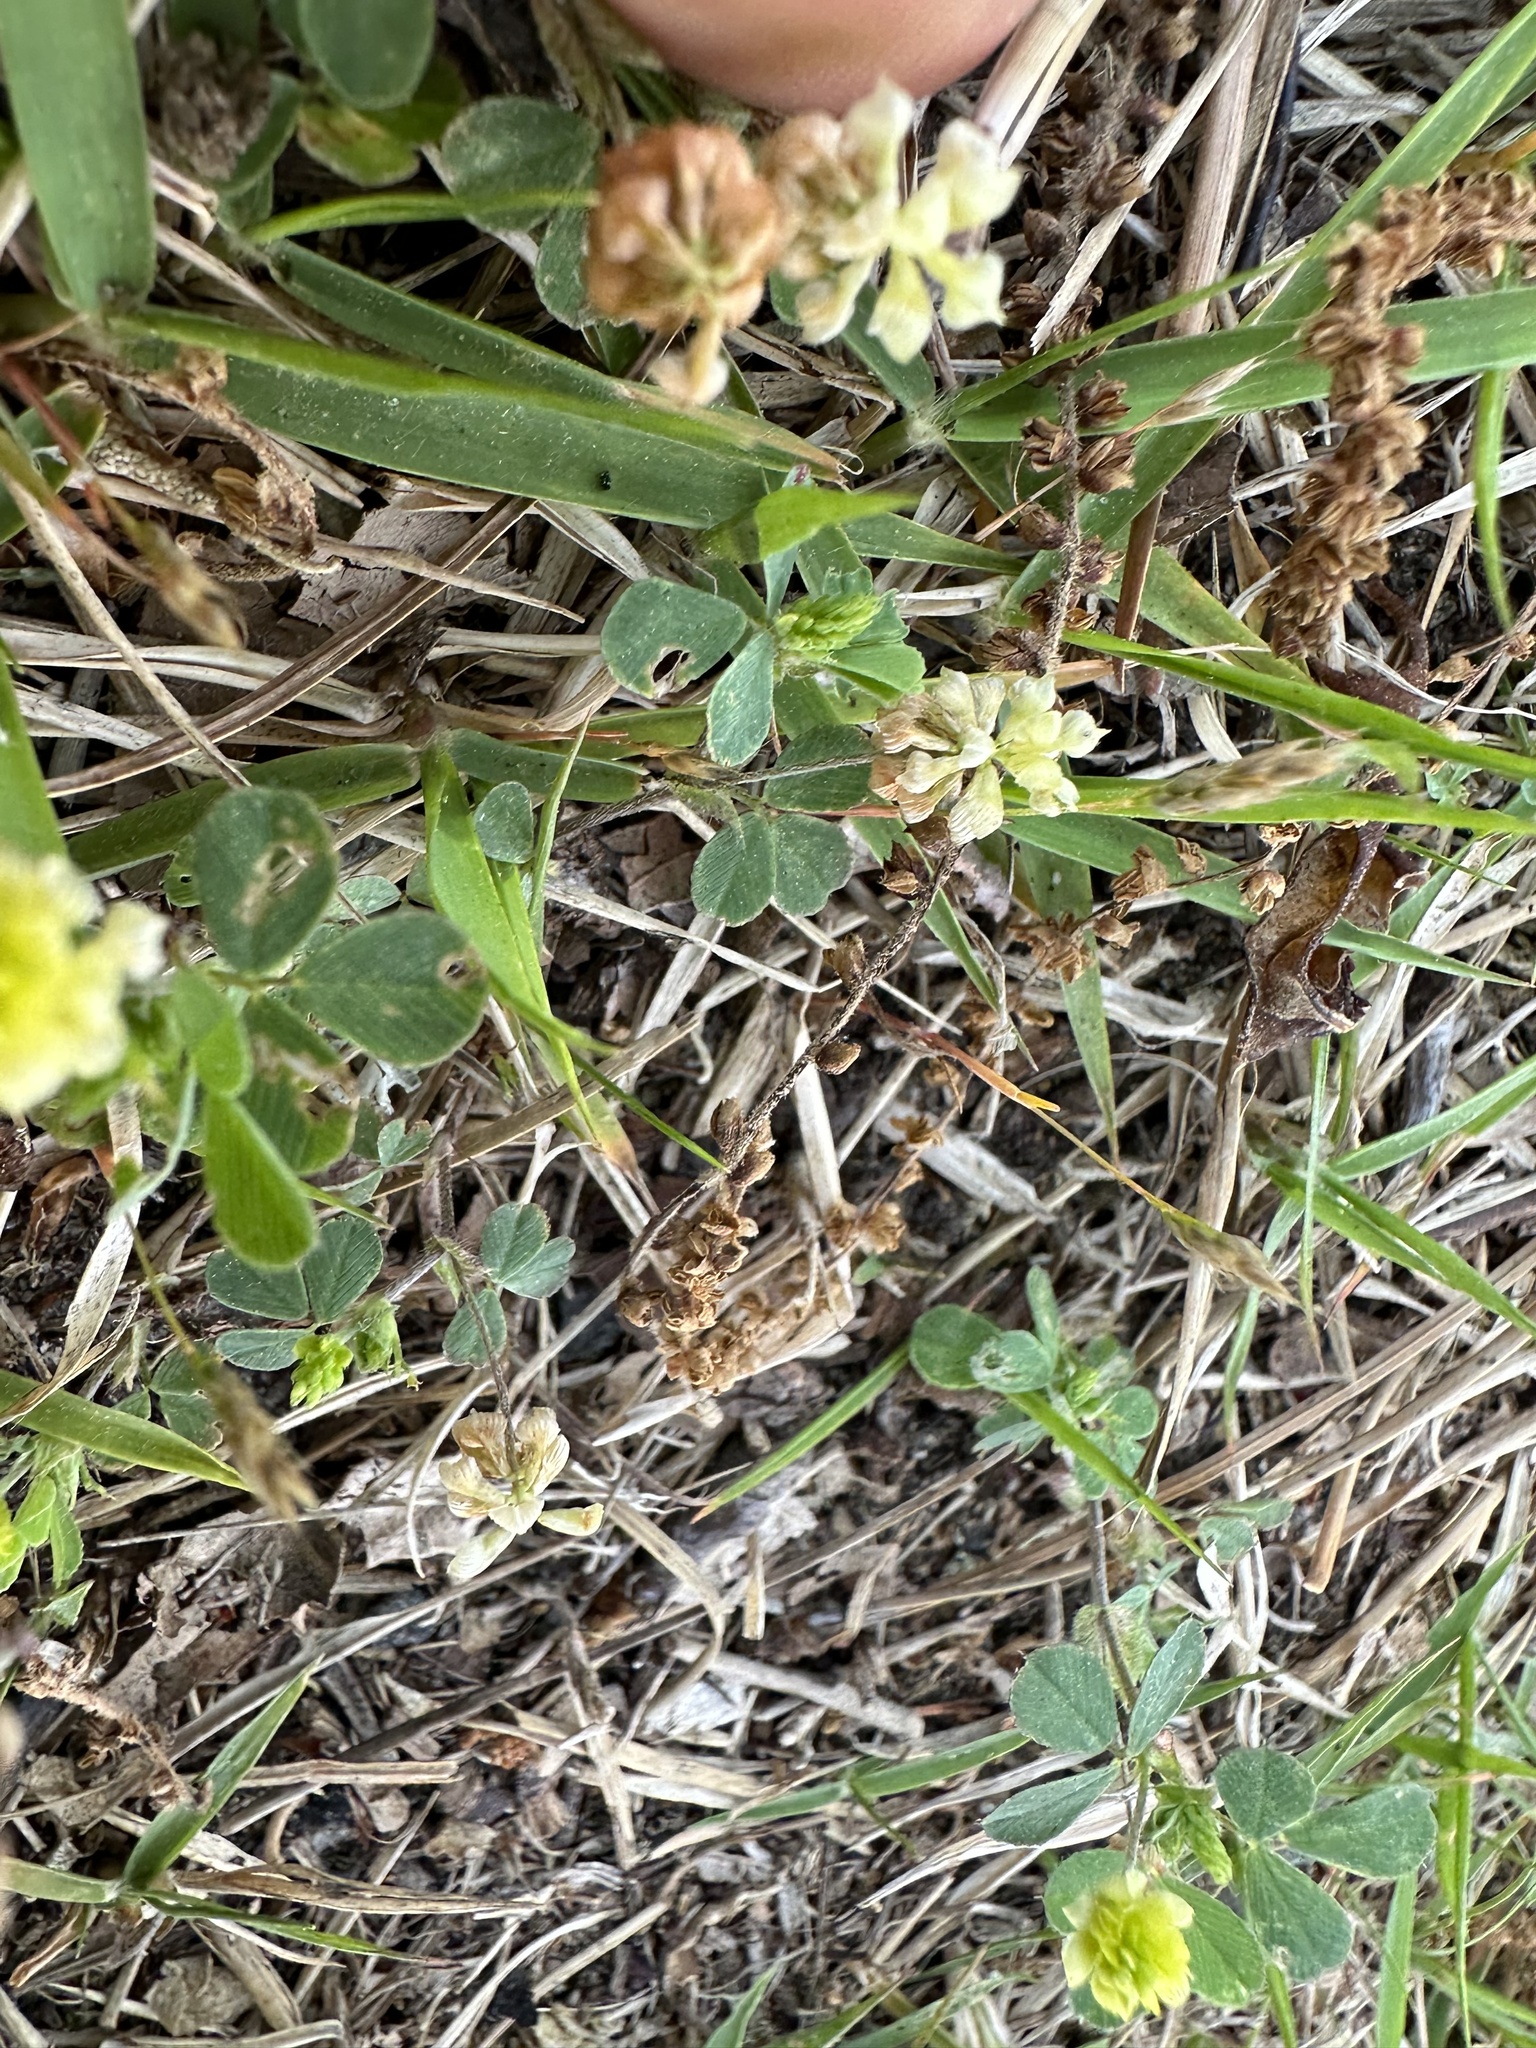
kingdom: Plantae
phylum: Tracheophyta
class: Magnoliopsida
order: Fabales
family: Fabaceae
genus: Trifolium
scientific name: Trifolium campestre
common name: Field clover
